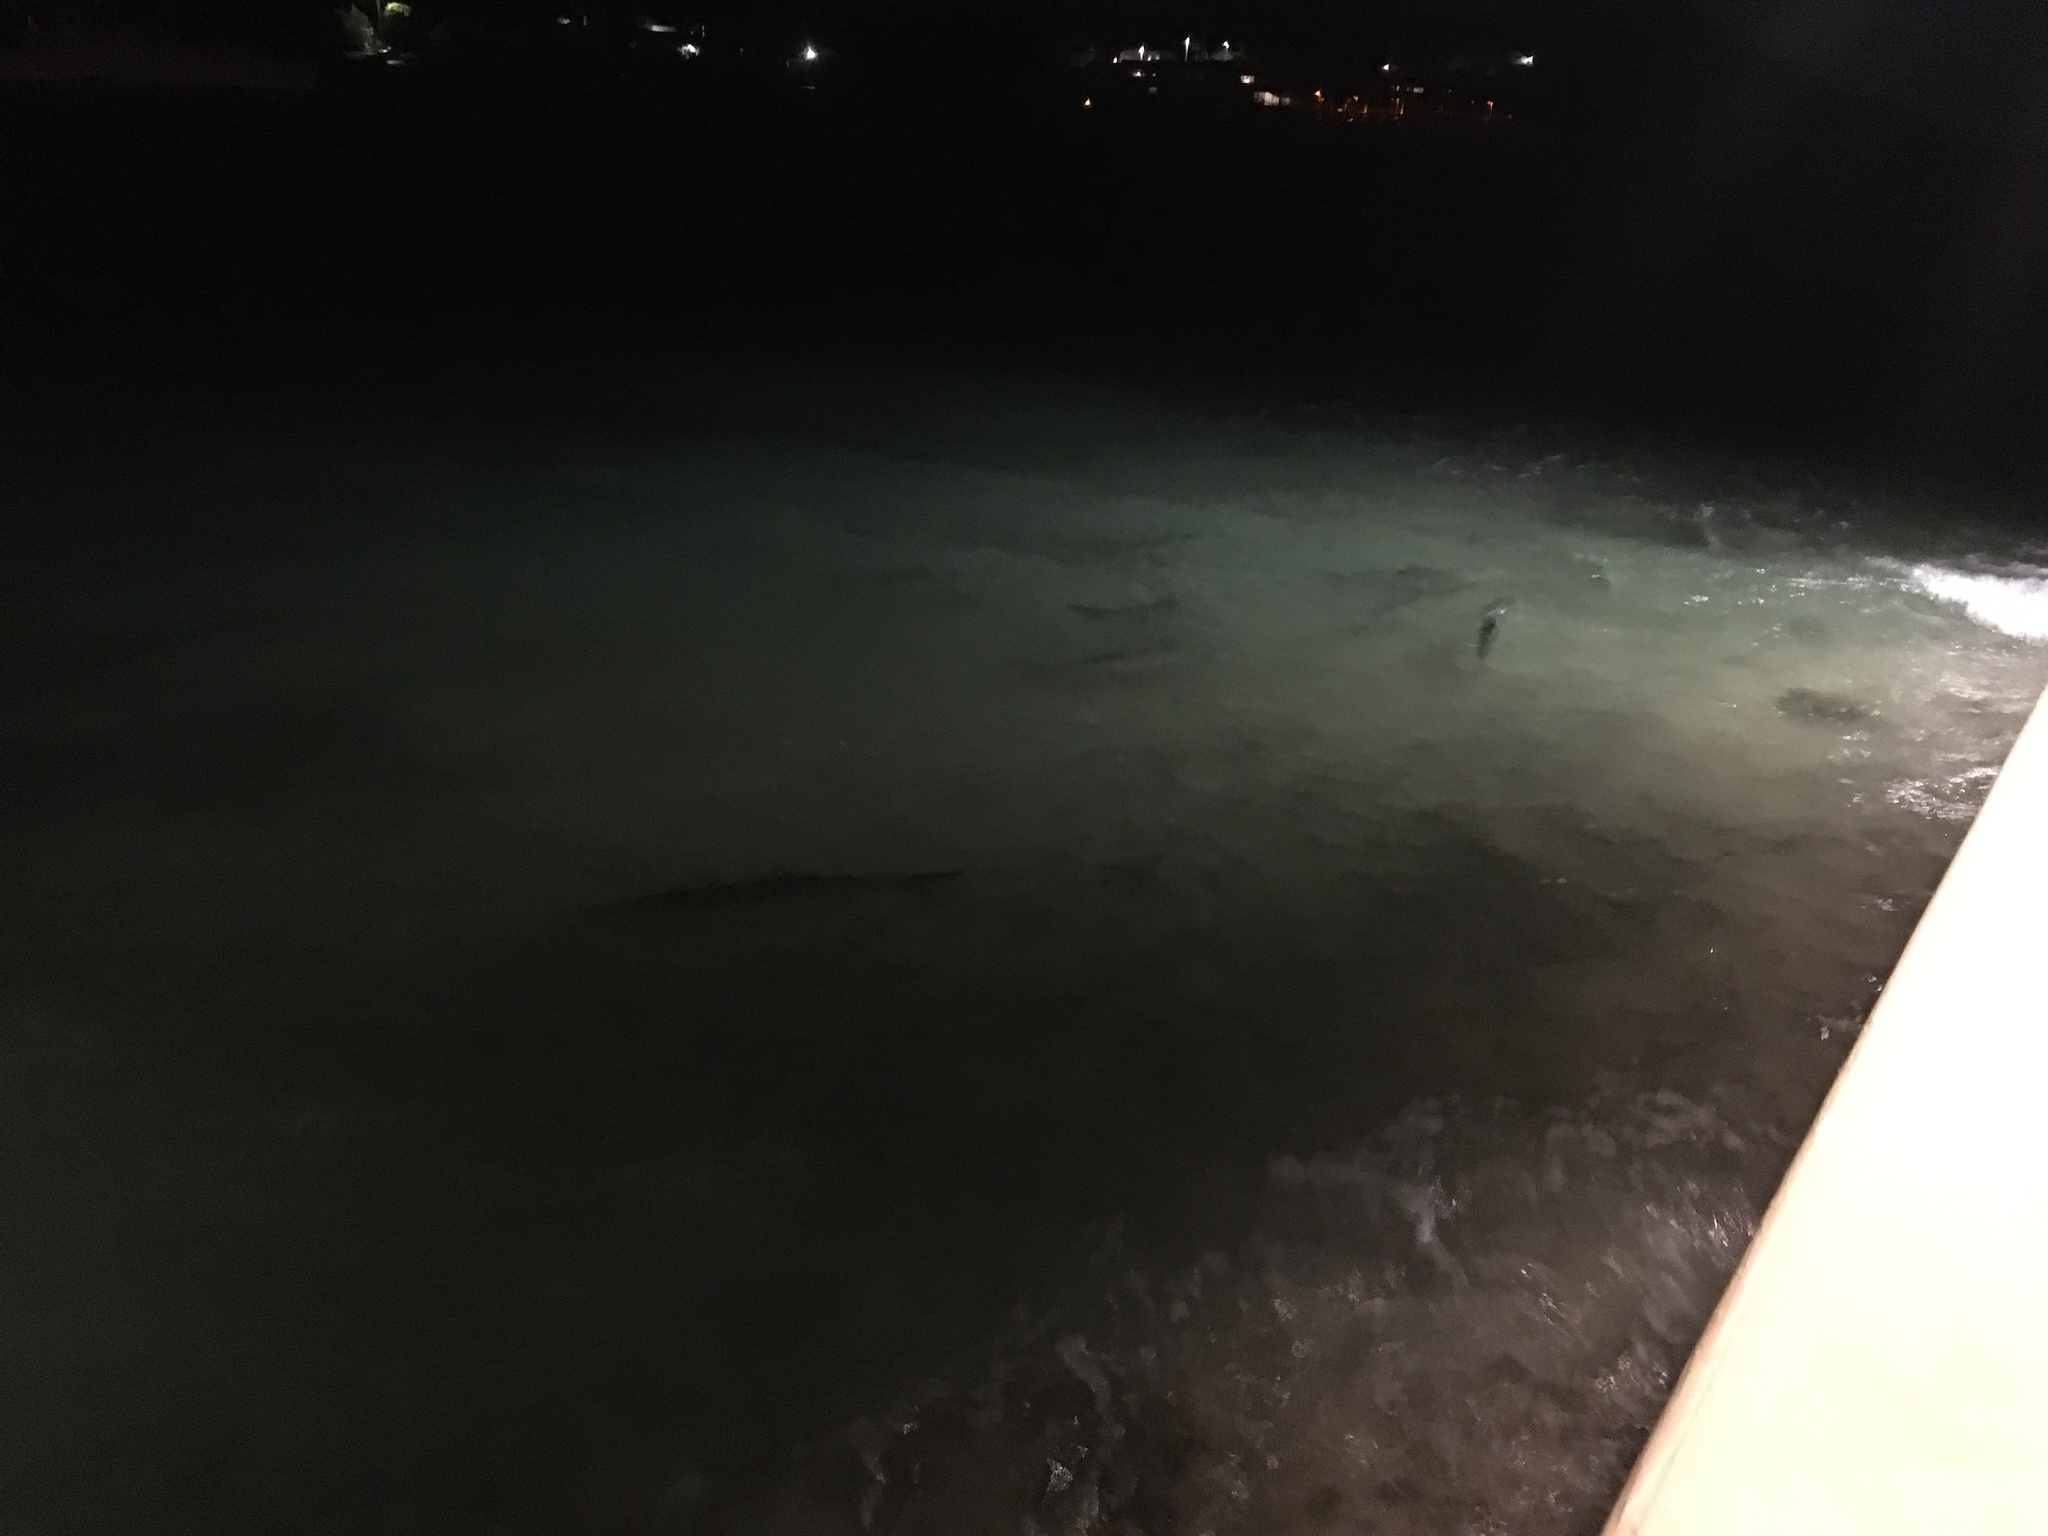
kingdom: Animalia
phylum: Chordata
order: Elopiformes
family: Megalopidae
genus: Megalops
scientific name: Megalops atlanticus
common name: Tarpon
